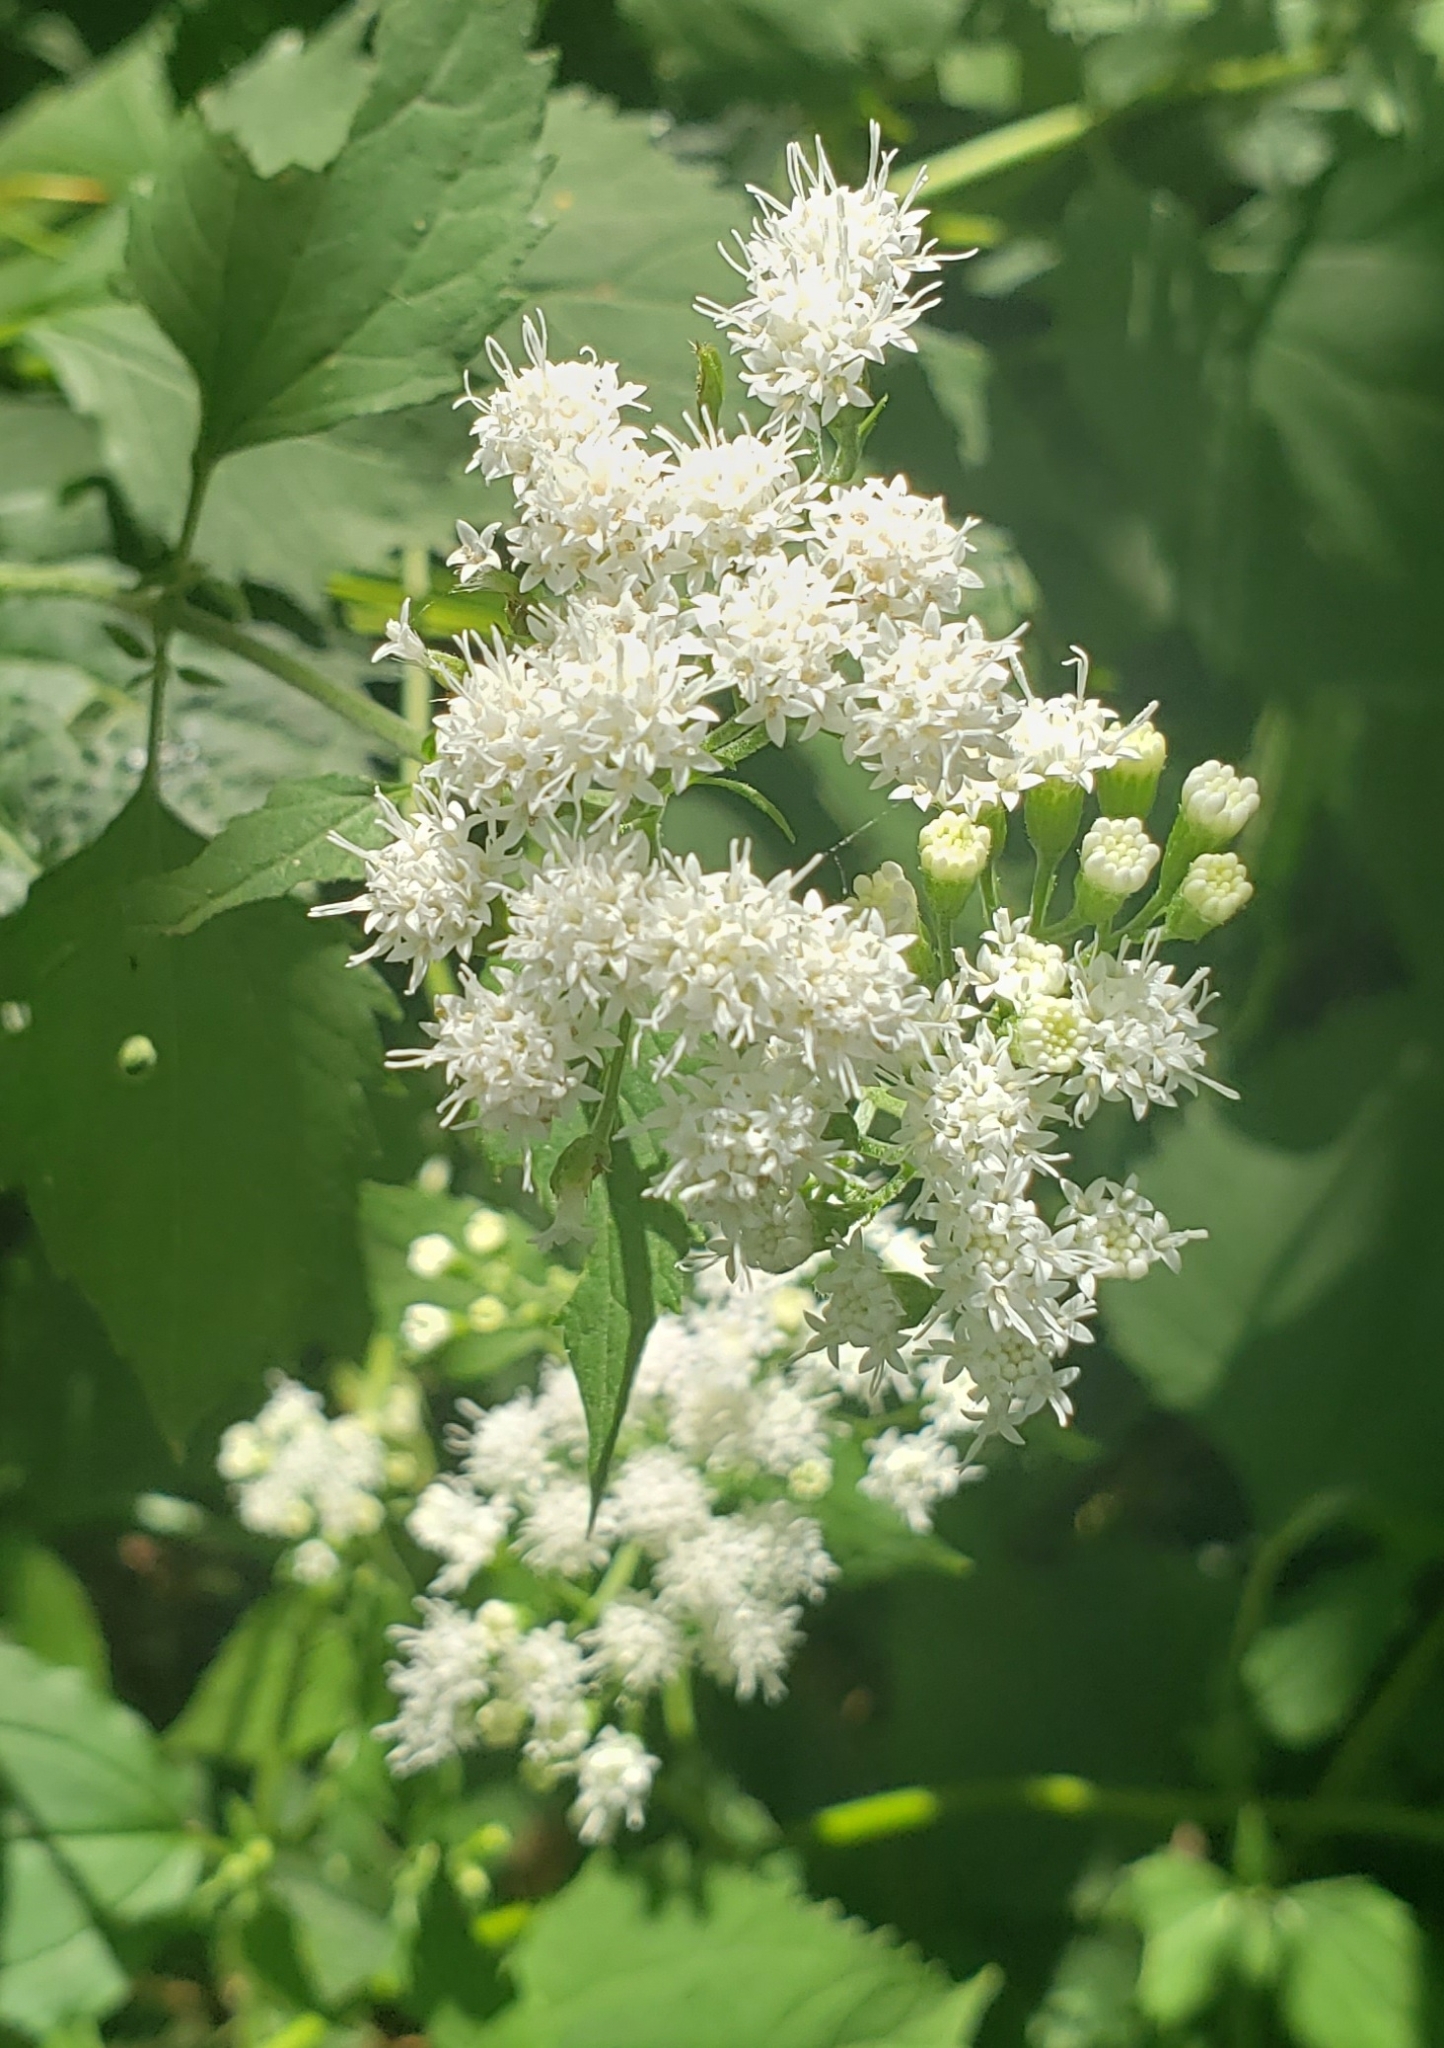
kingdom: Plantae
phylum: Tracheophyta
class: Magnoliopsida
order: Asterales
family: Asteraceae
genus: Ageratina
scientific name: Ageratina altissima
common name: White snakeroot
